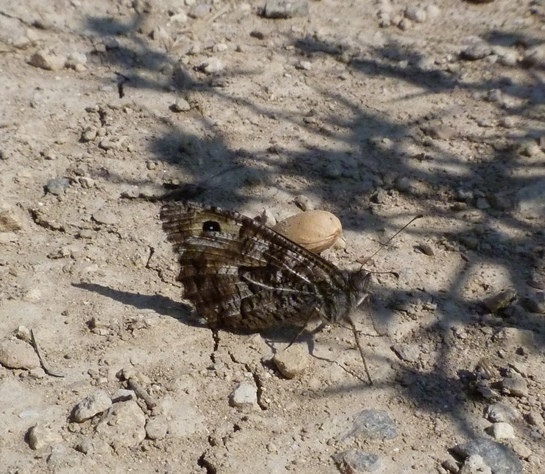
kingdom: Animalia
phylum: Arthropoda
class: Insecta
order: Lepidoptera
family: Nymphalidae
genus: Hipparchia
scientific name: Hipparchia semele
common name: Grayling
